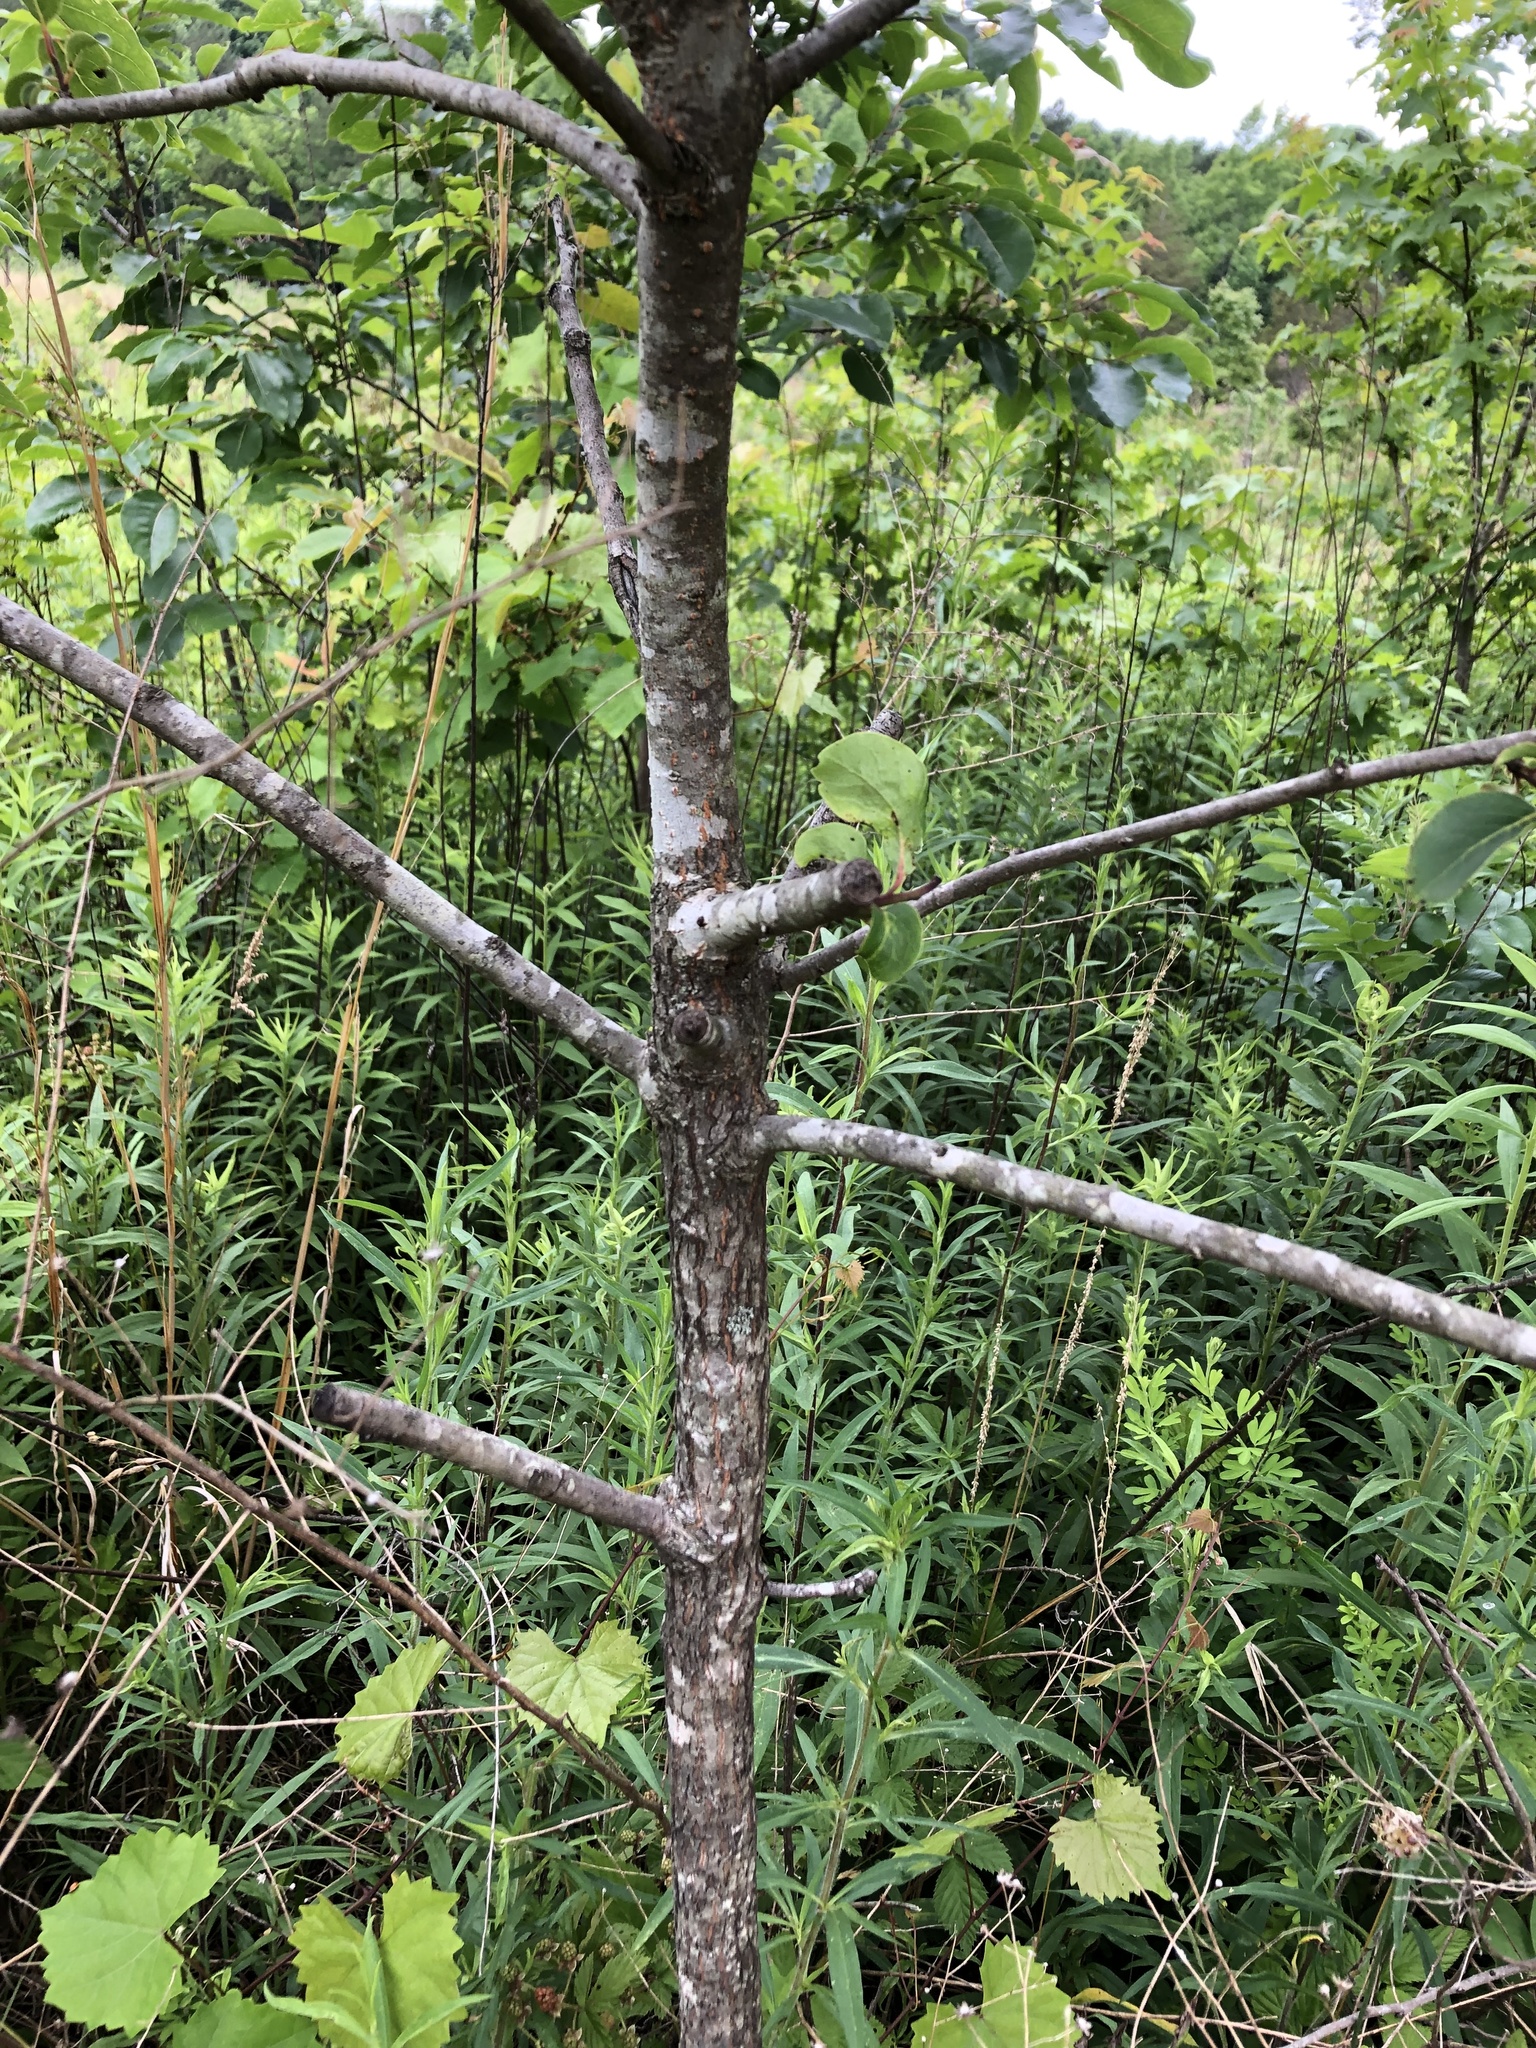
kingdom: Plantae
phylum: Tracheophyta
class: Magnoliopsida
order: Ericales
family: Ebenaceae
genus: Diospyros
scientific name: Diospyros virginiana
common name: Persimmon
